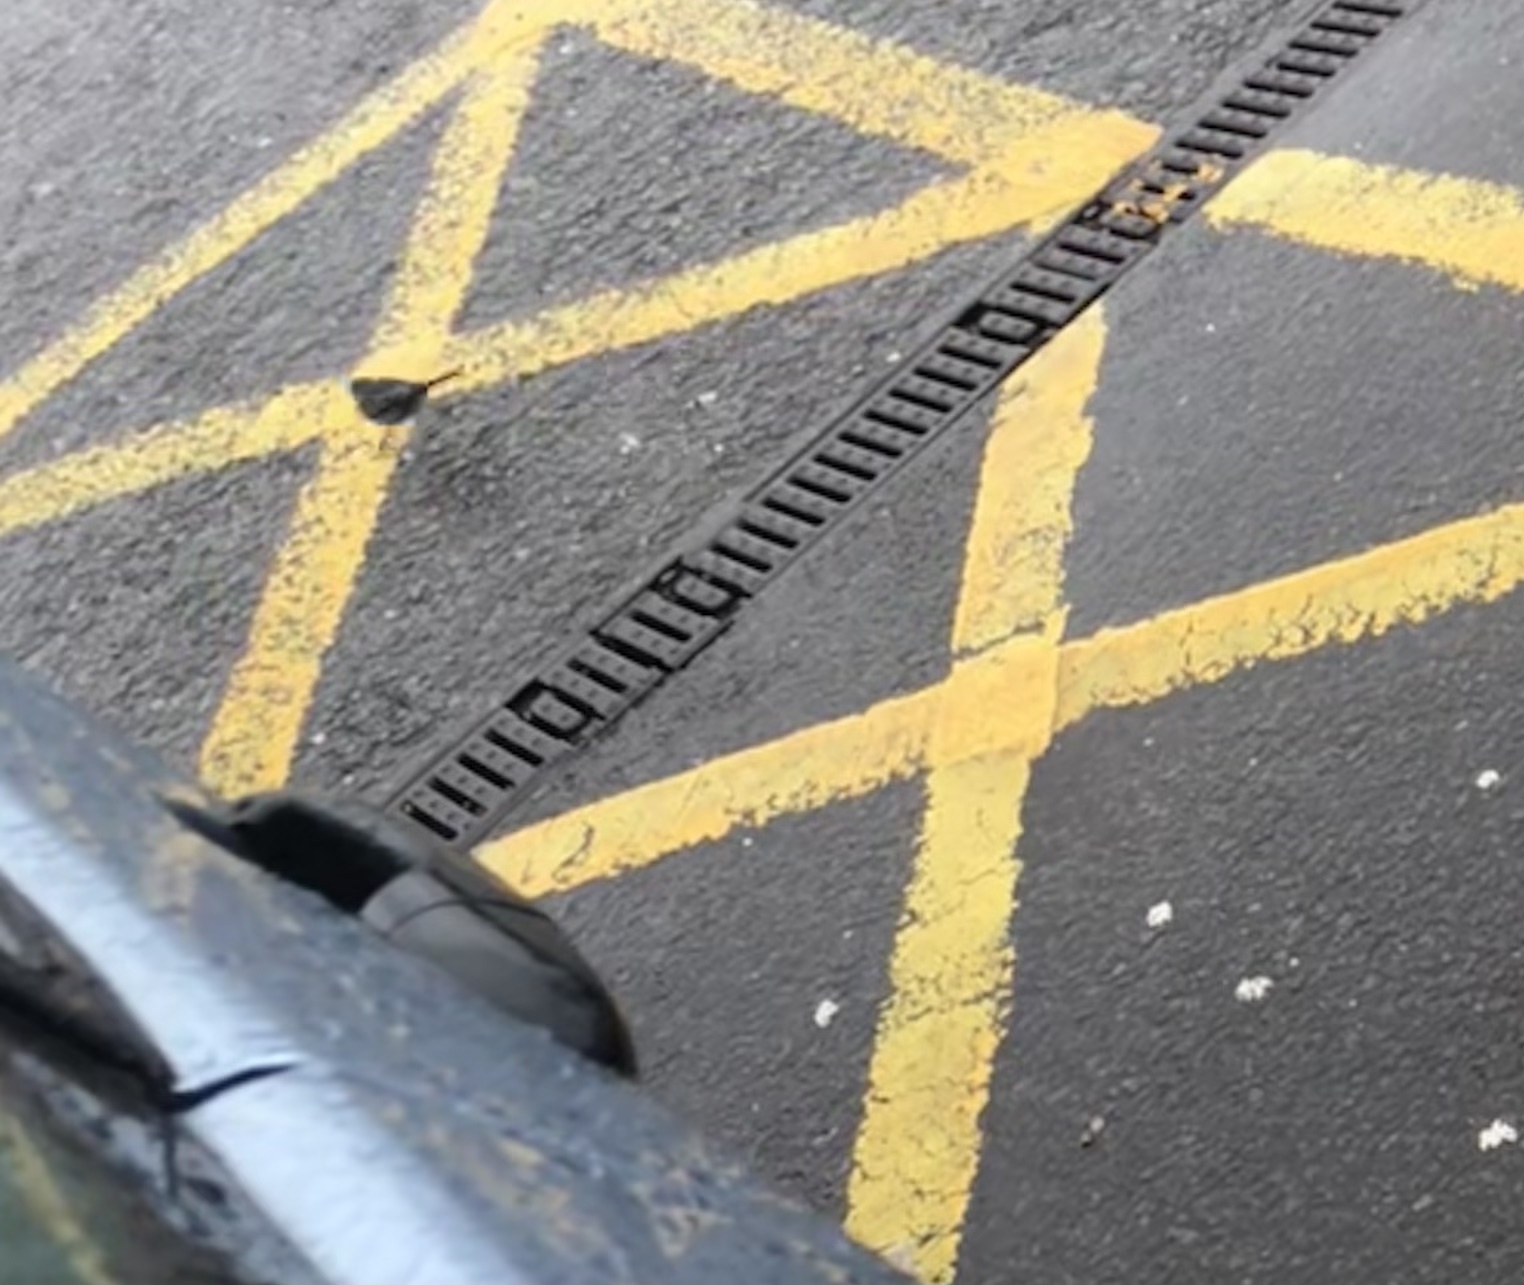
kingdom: Animalia
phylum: Chordata
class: Aves
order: Passeriformes
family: Motacillidae
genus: Motacilla
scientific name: Motacilla alba
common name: White wagtail
